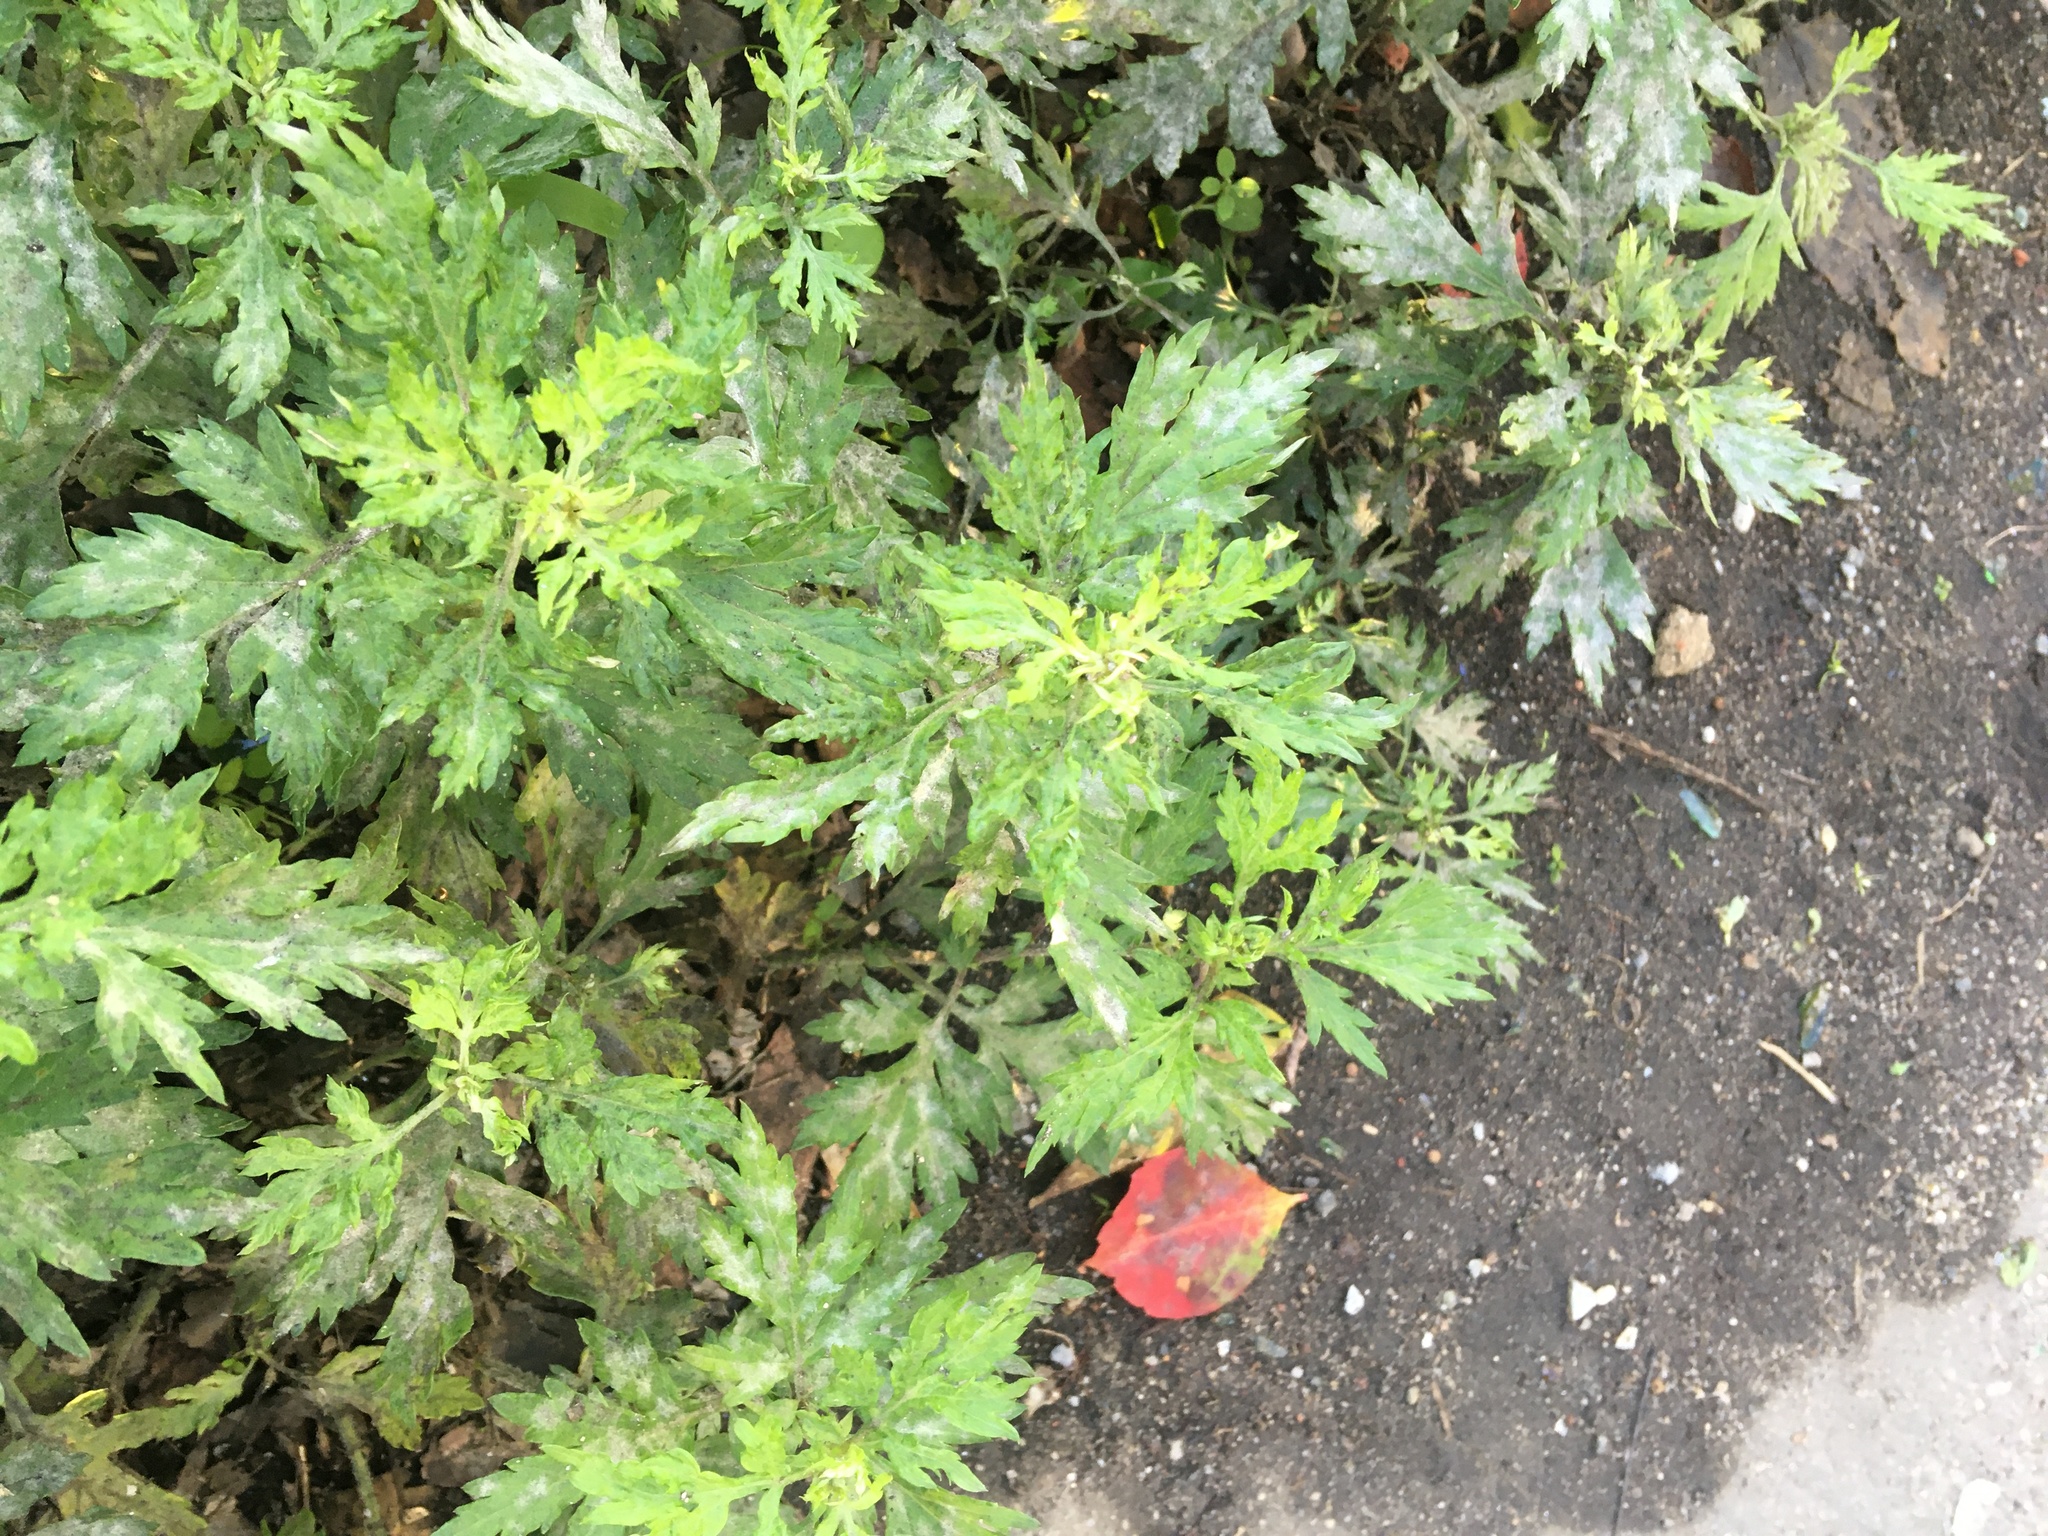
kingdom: Plantae
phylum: Tracheophyta
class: Magnoliopsida
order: Asterales
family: Asteraceae
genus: Artemisia
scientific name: Artemisia vulgaris
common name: Mugwort
